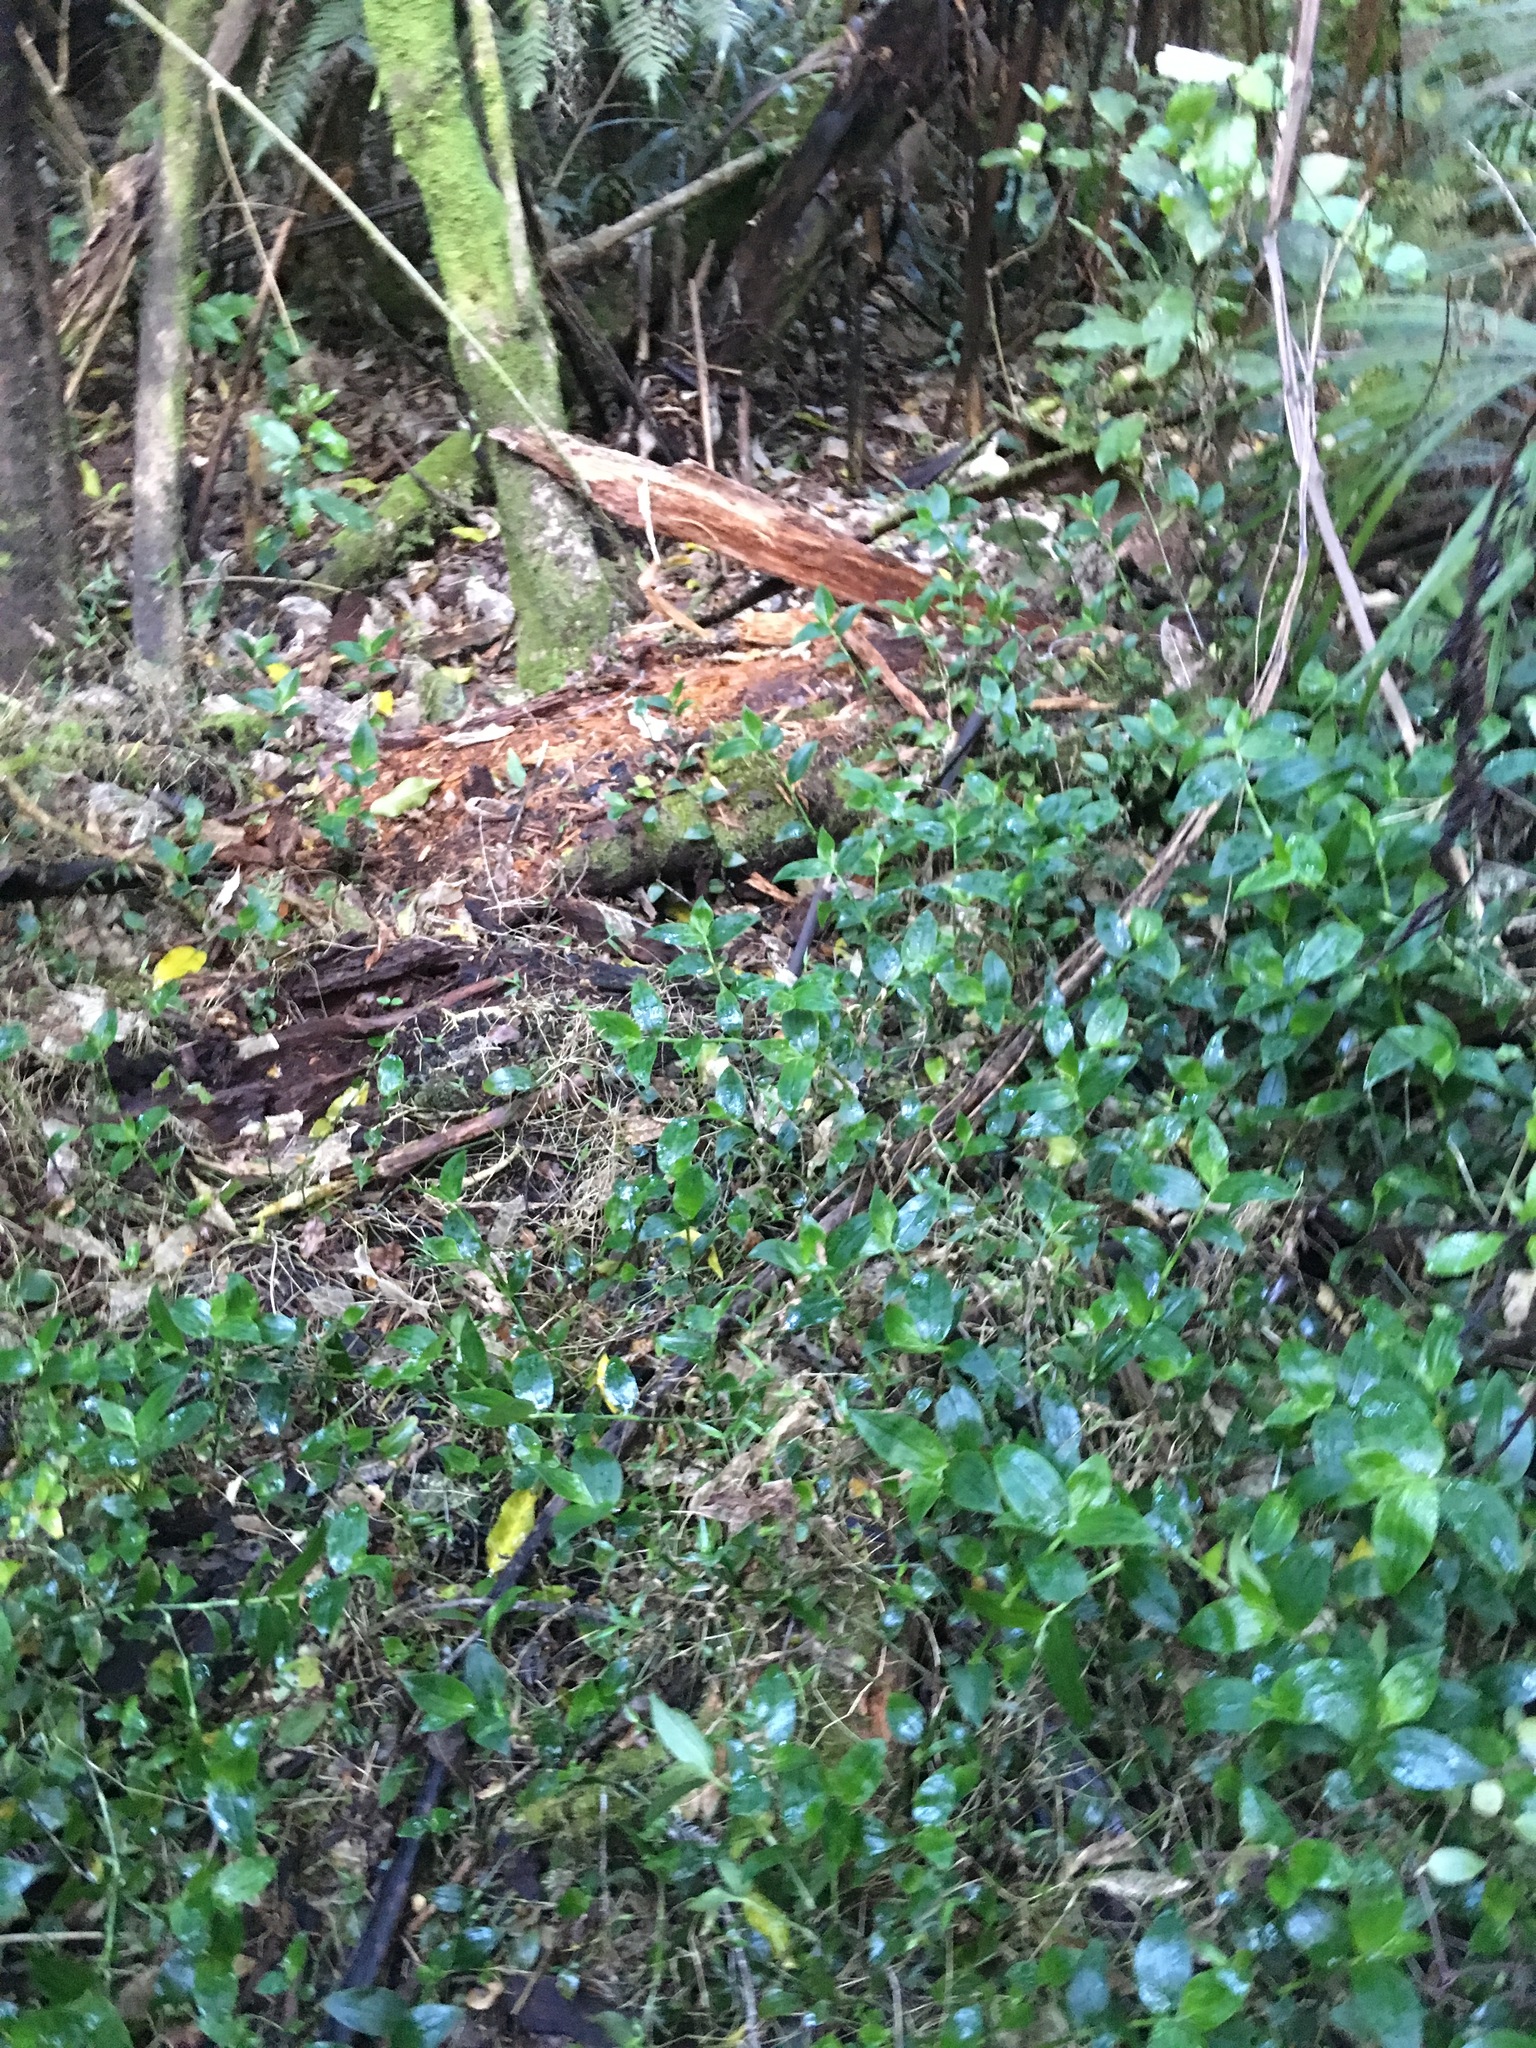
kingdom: Plantae
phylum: Tracheophyta
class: Liliopsida
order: Commelinales
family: Commelinaceae
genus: Tradescantia
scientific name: Tradescantia fluminensis
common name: Wandering-jew
